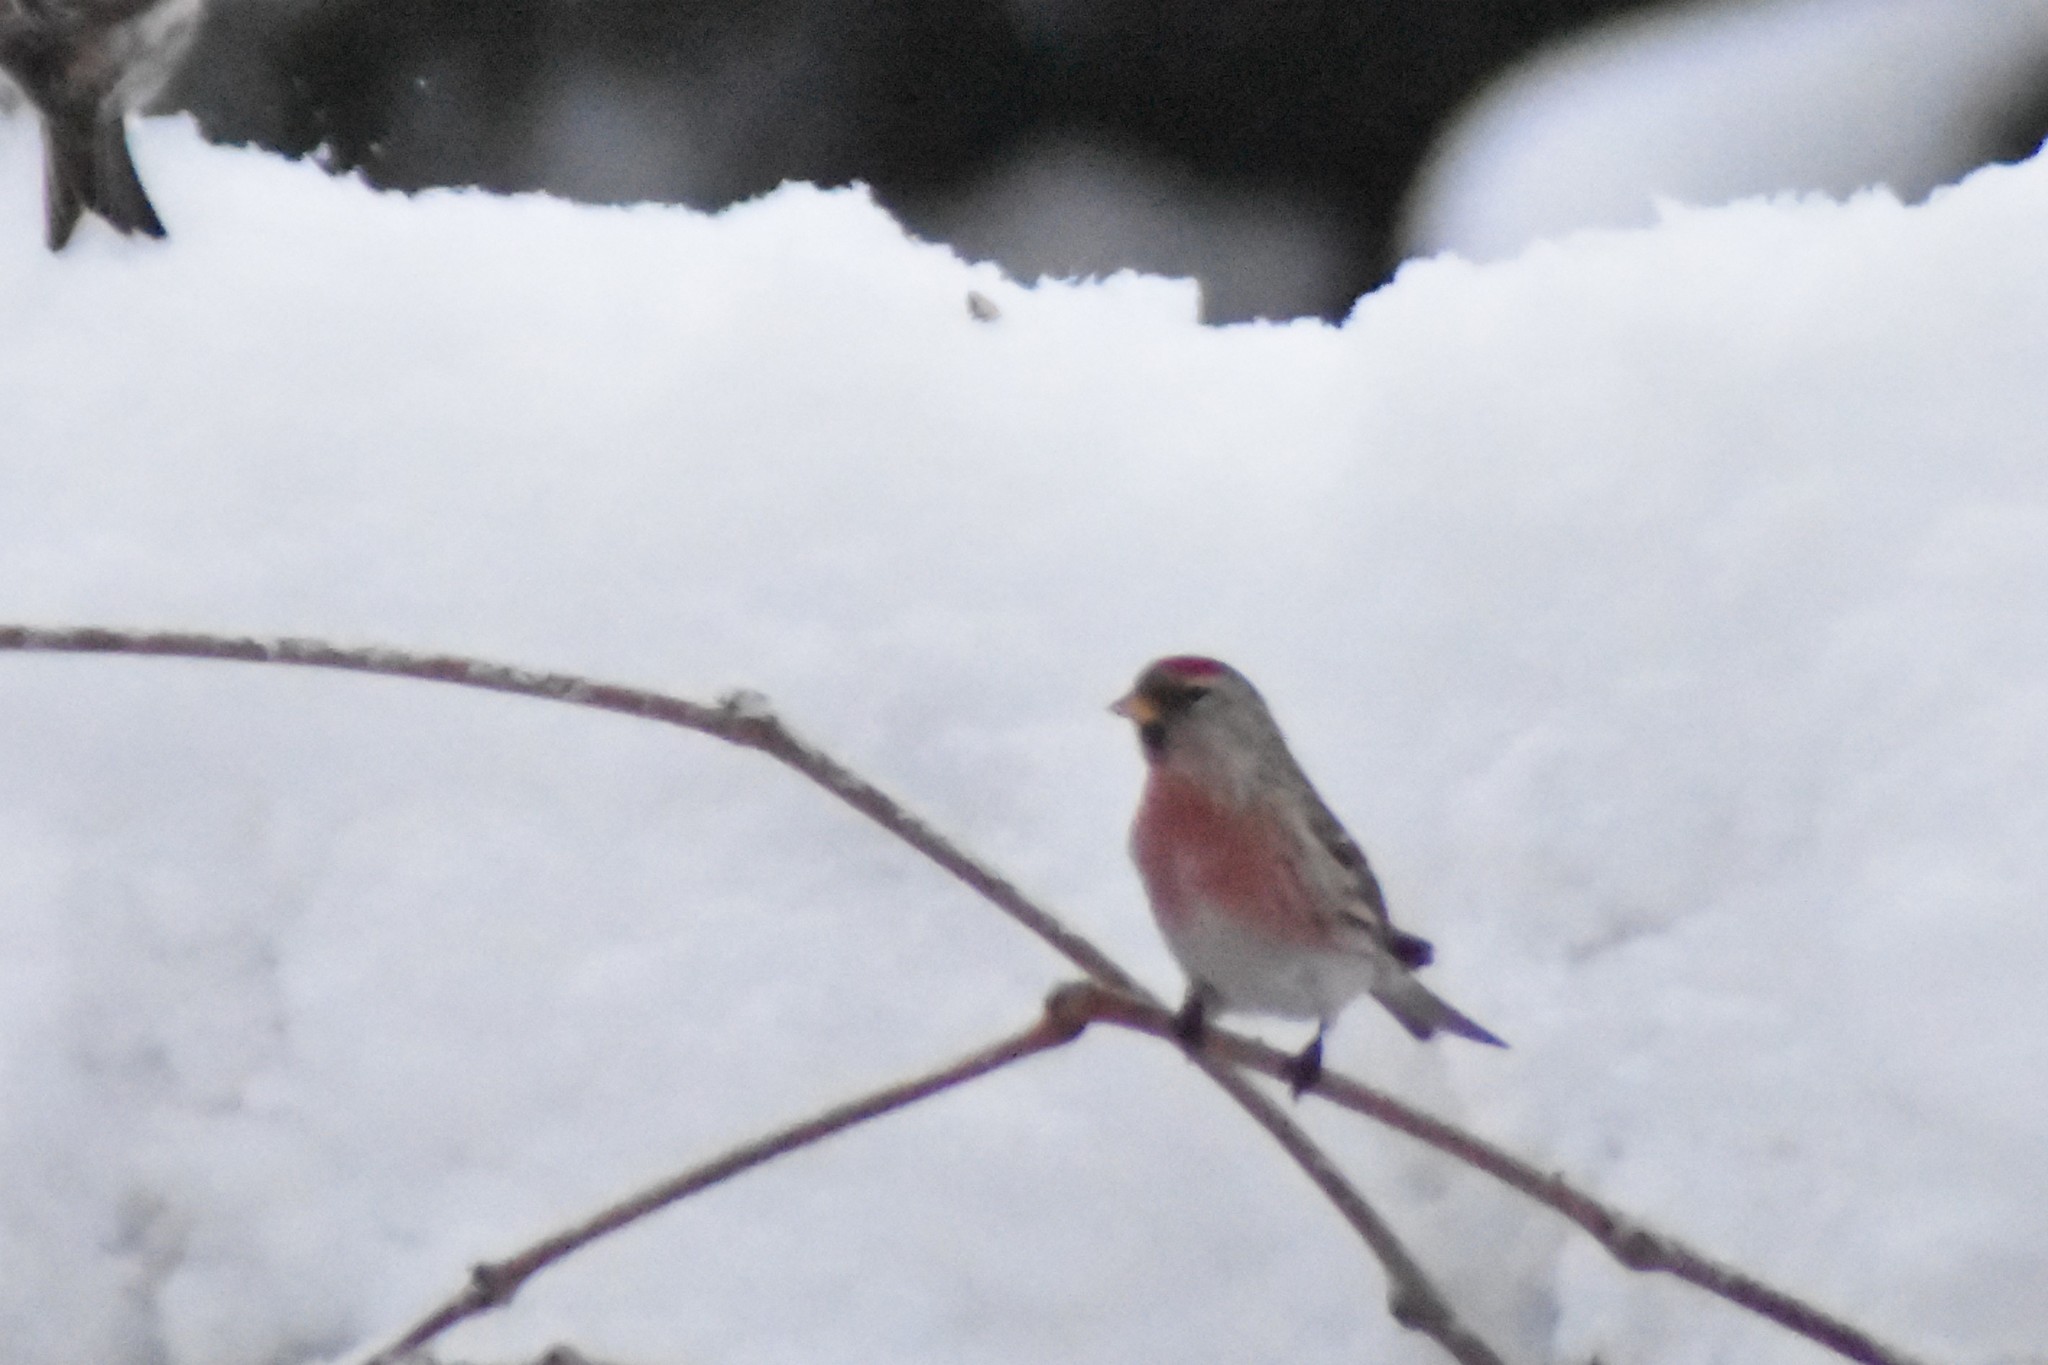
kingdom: Animalia
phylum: Chordata
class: Aves
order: Passeriformes
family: Fringillidae
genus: Acanthis
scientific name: Acanthis flammea
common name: Common redpoll
